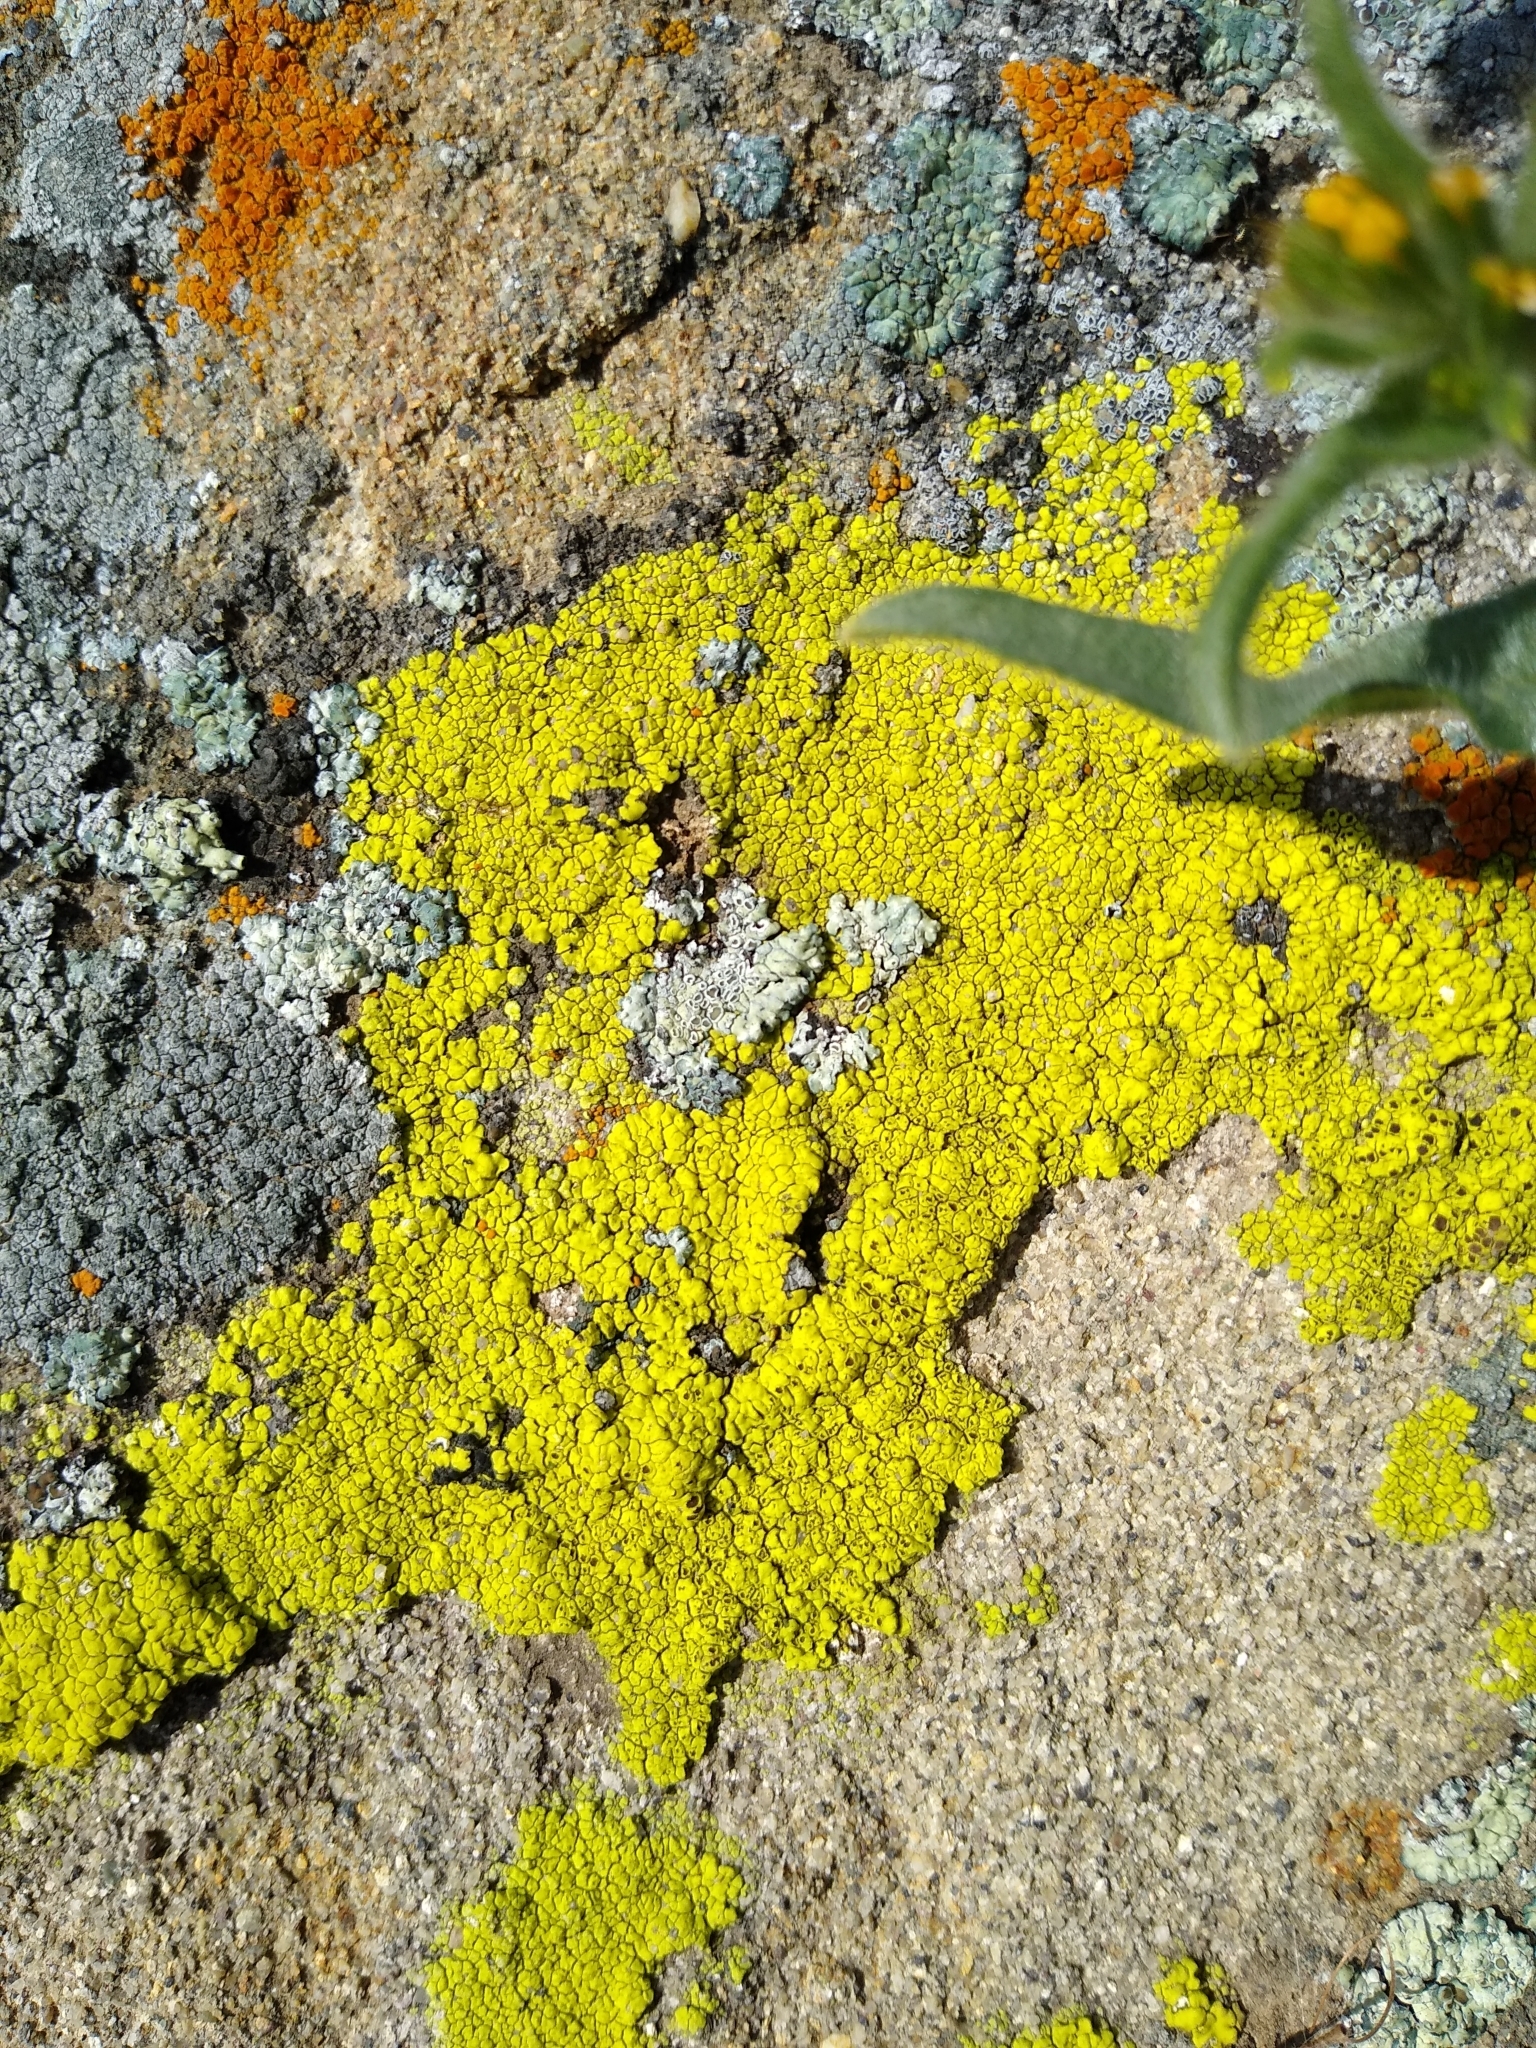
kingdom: Fungi
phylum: Ascomycota
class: Lecanoromycetes
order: Acarosporales
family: Acarosporaceae
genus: Acarospora
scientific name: Acarospora socialis
